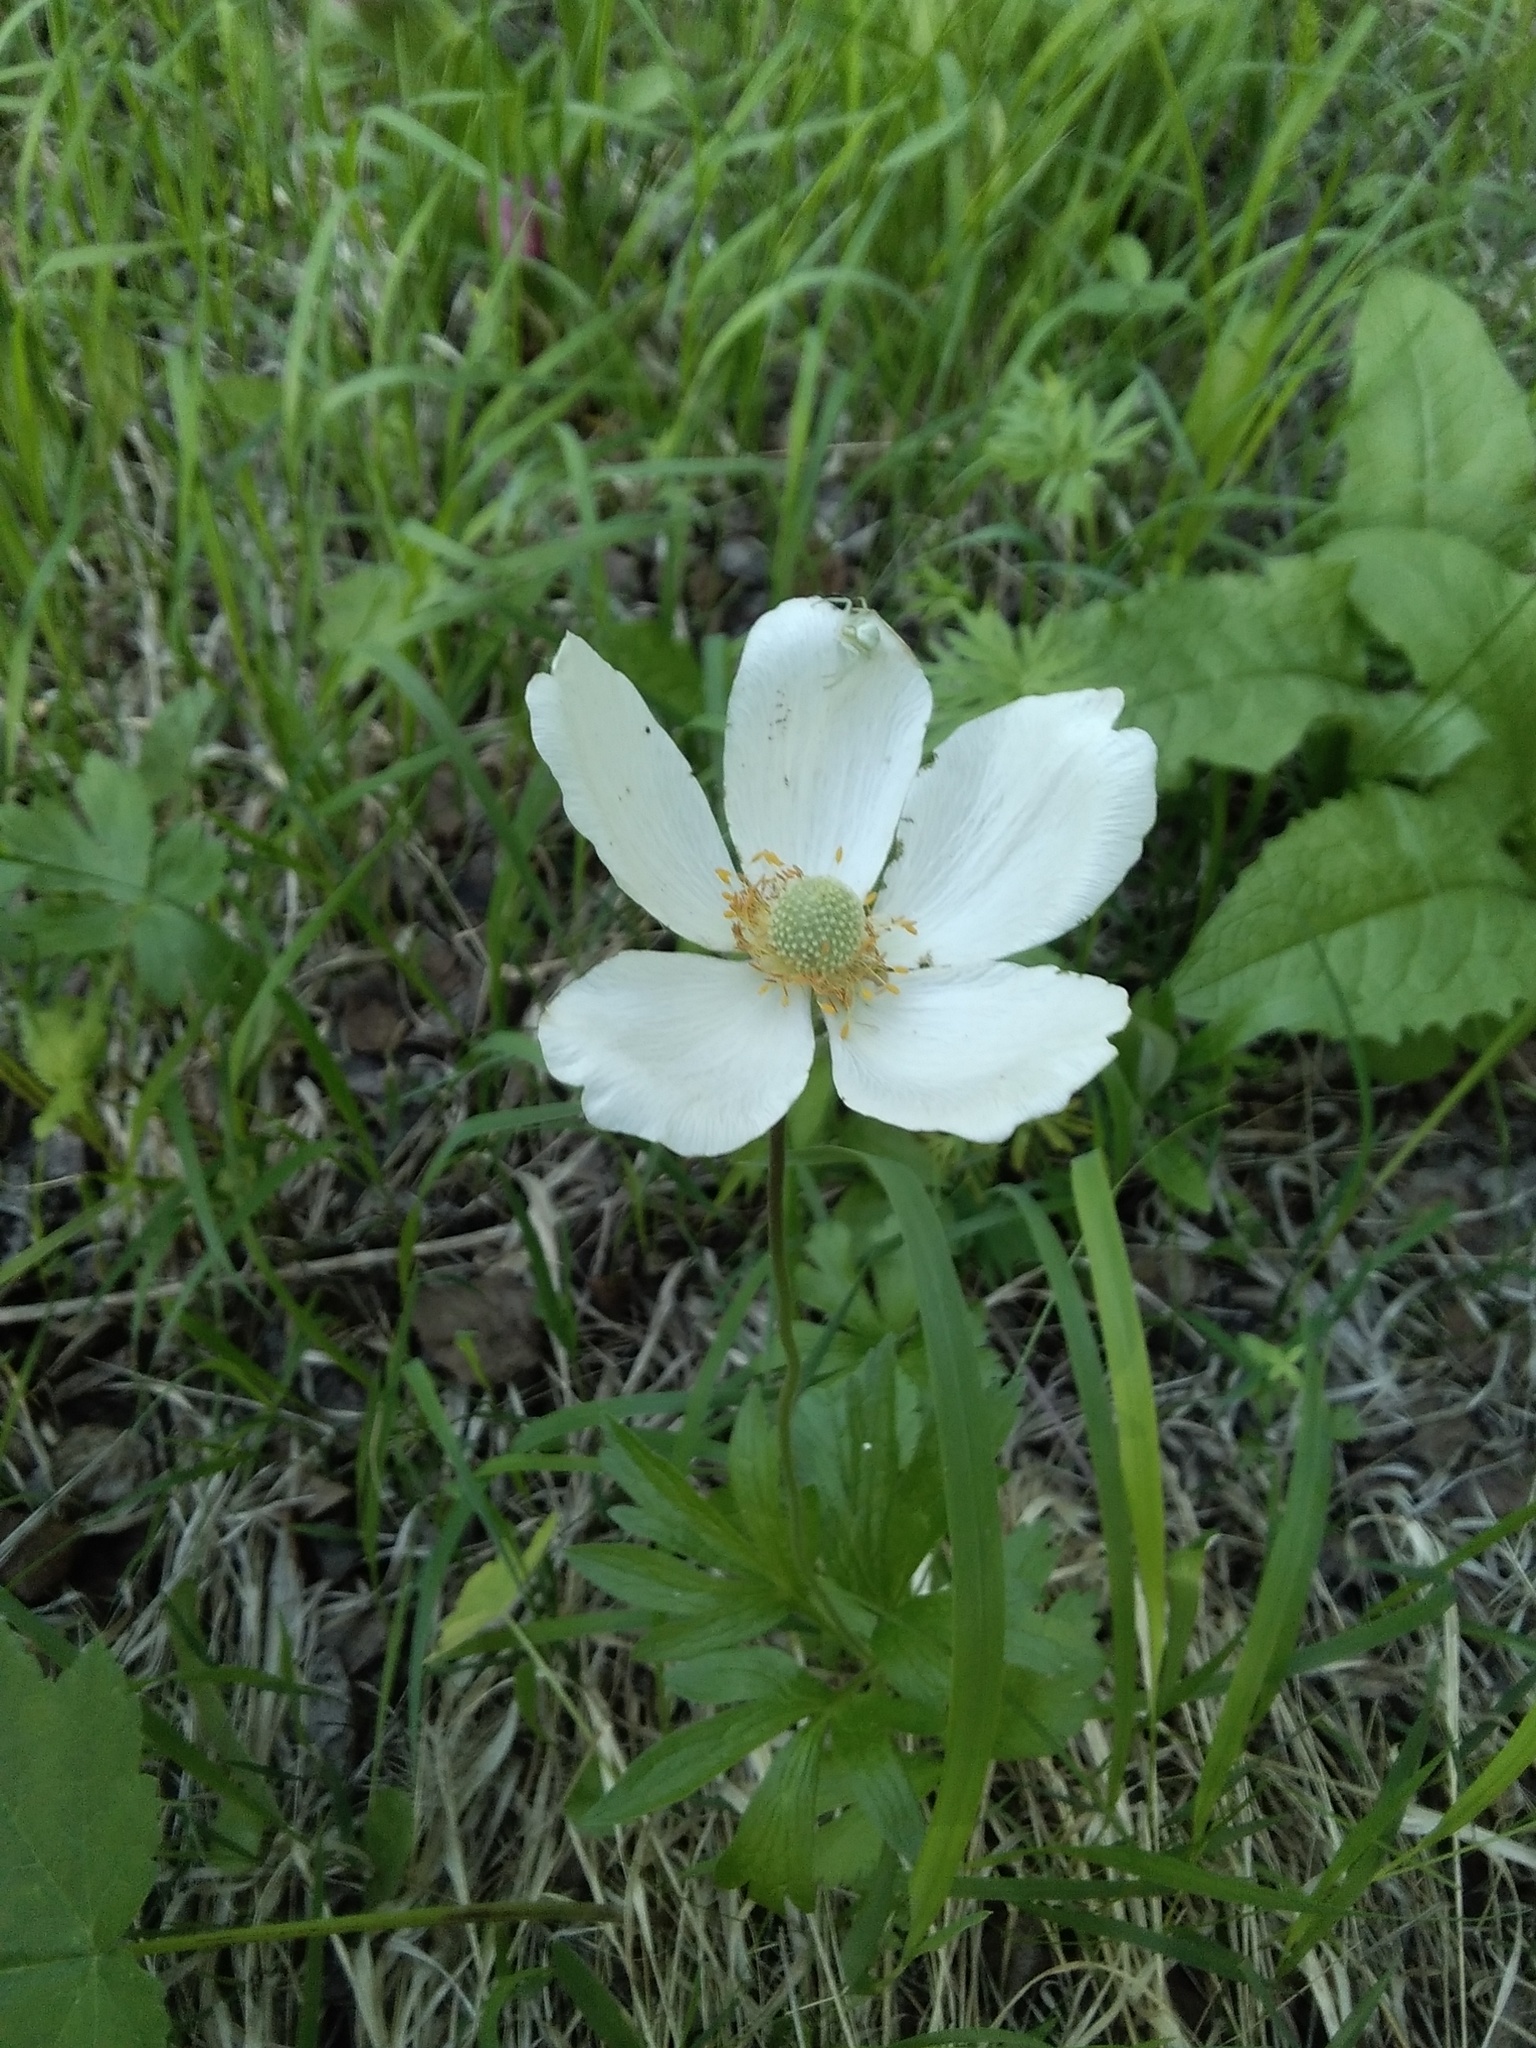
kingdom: Plantae
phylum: Tracheophyta
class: Magnoliopsida
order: Ranunculales
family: Ranunculaceae
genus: Anemone
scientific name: Anemone sylvestris
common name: Snowdrop anemone
